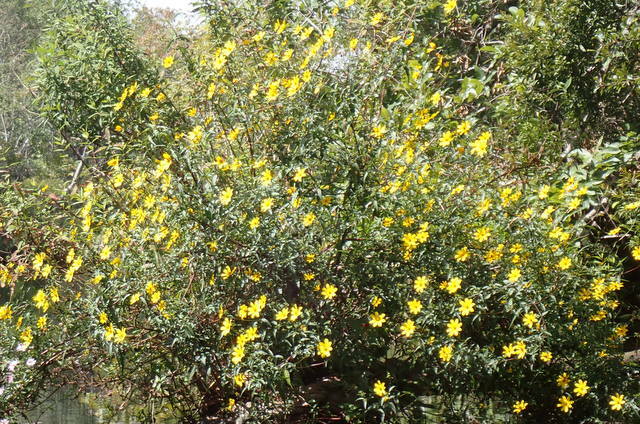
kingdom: Plantae
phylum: Tracheophyta
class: Magnoliopsida
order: Asterales
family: Asteraceae
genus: Bidens
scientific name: Bidens mitis
